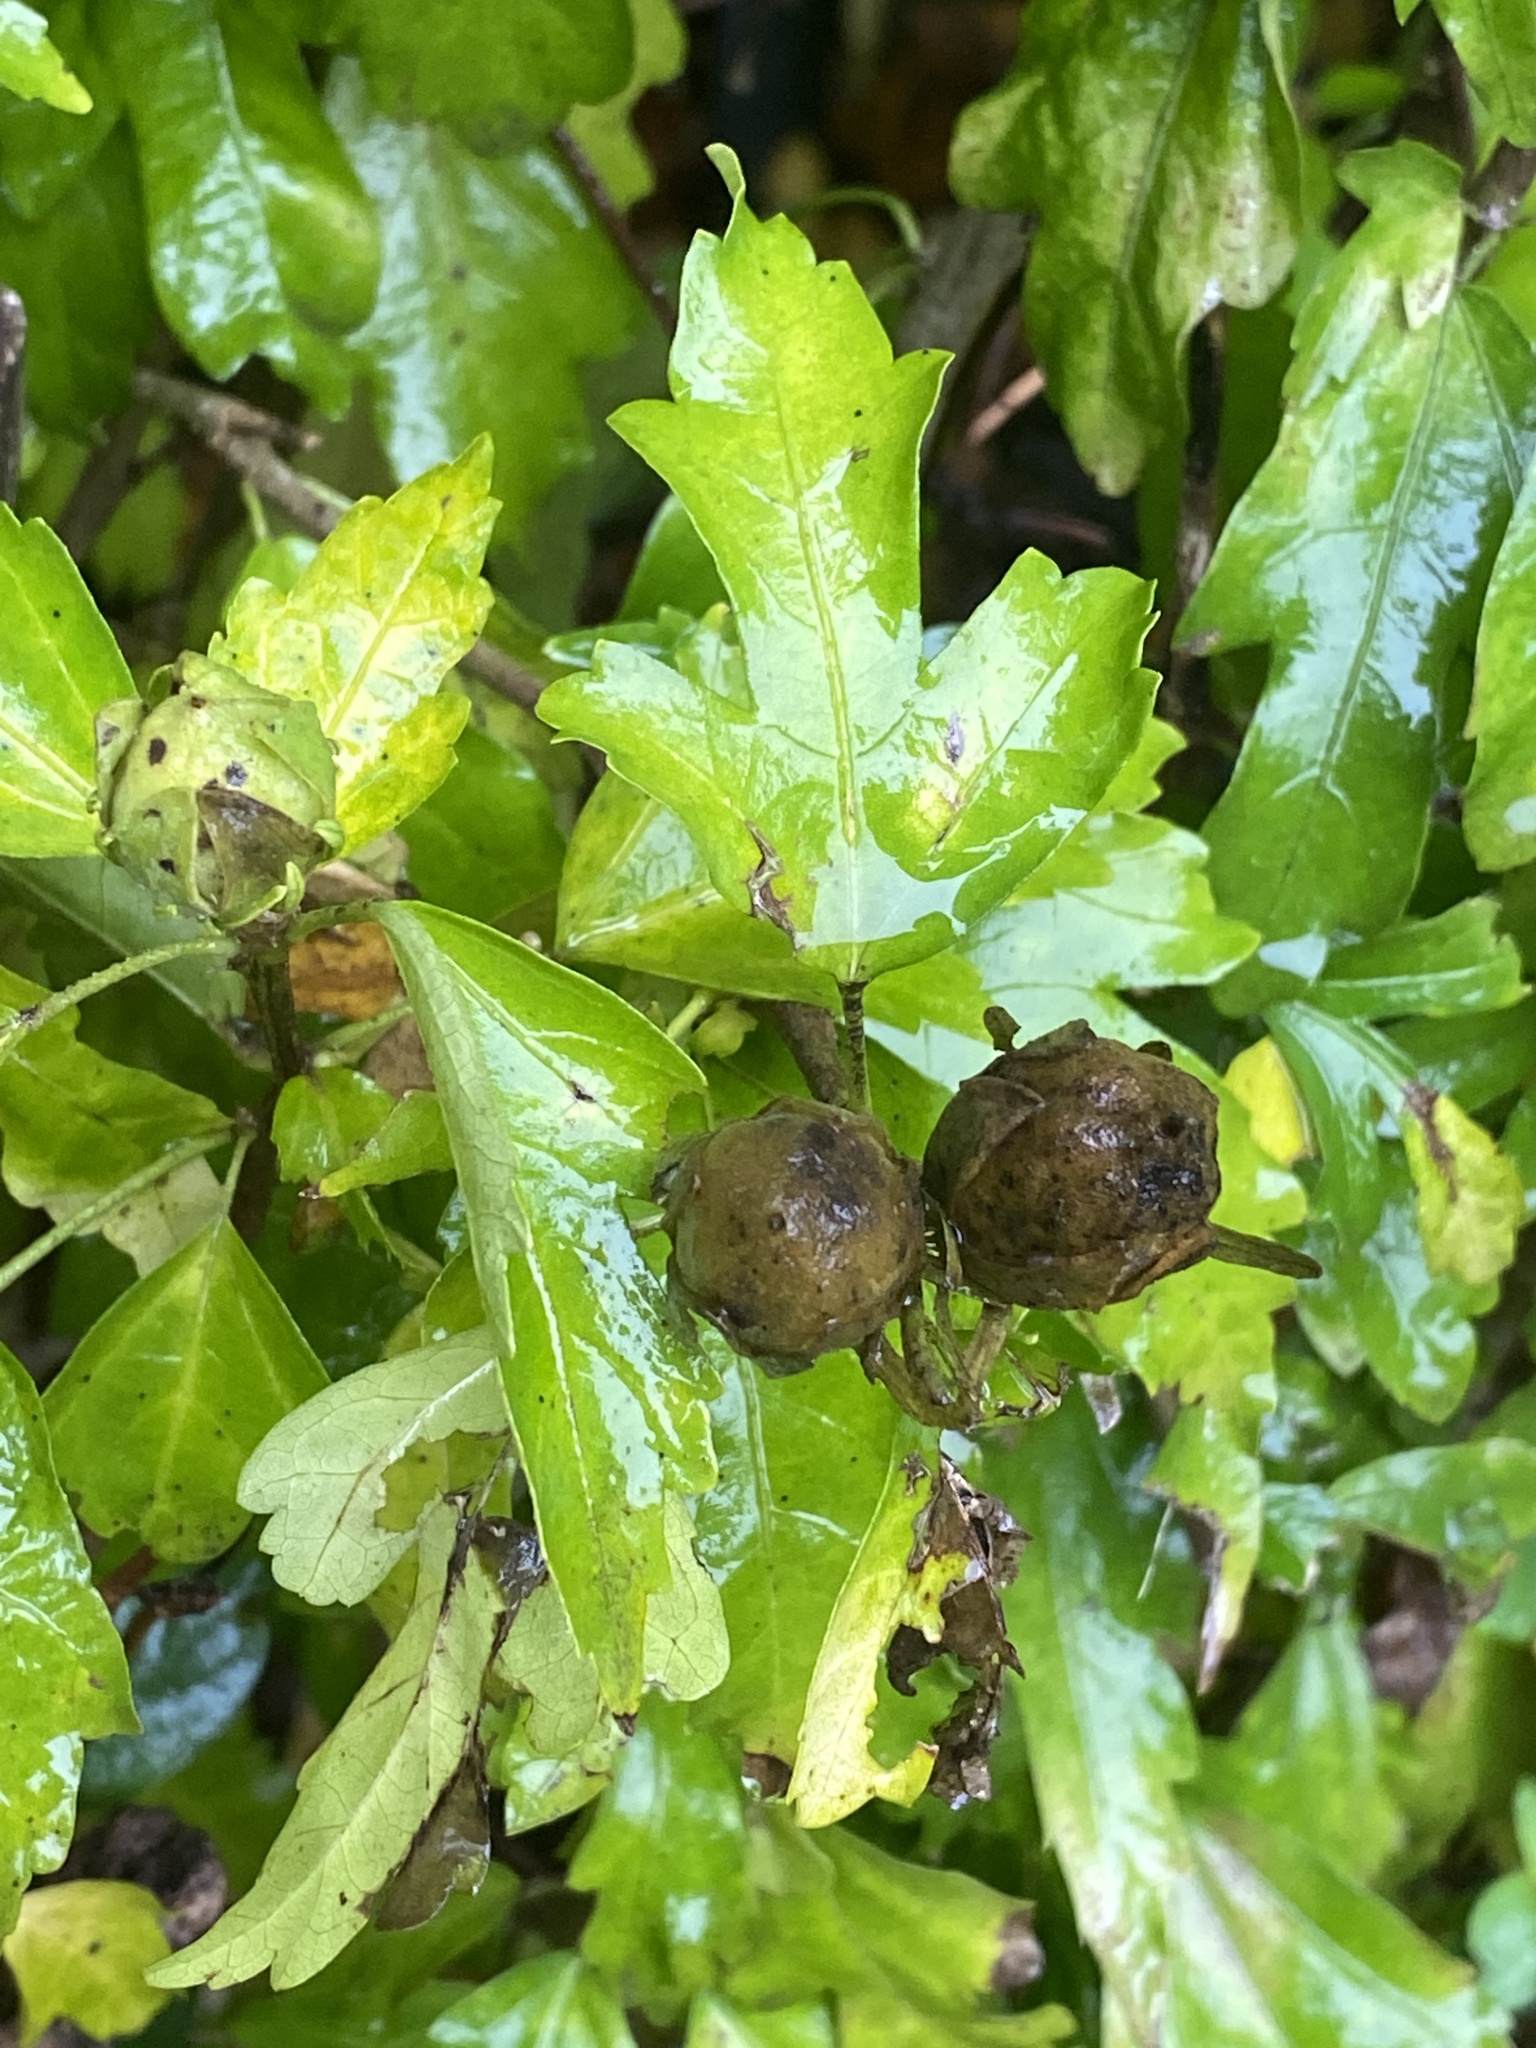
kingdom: Plantae
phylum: Tracheophyta
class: Magnoliopsida
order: Malvales
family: Malvaceae
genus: Hibiscus
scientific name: Hibiscus syriacus
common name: Syrian ketmia
